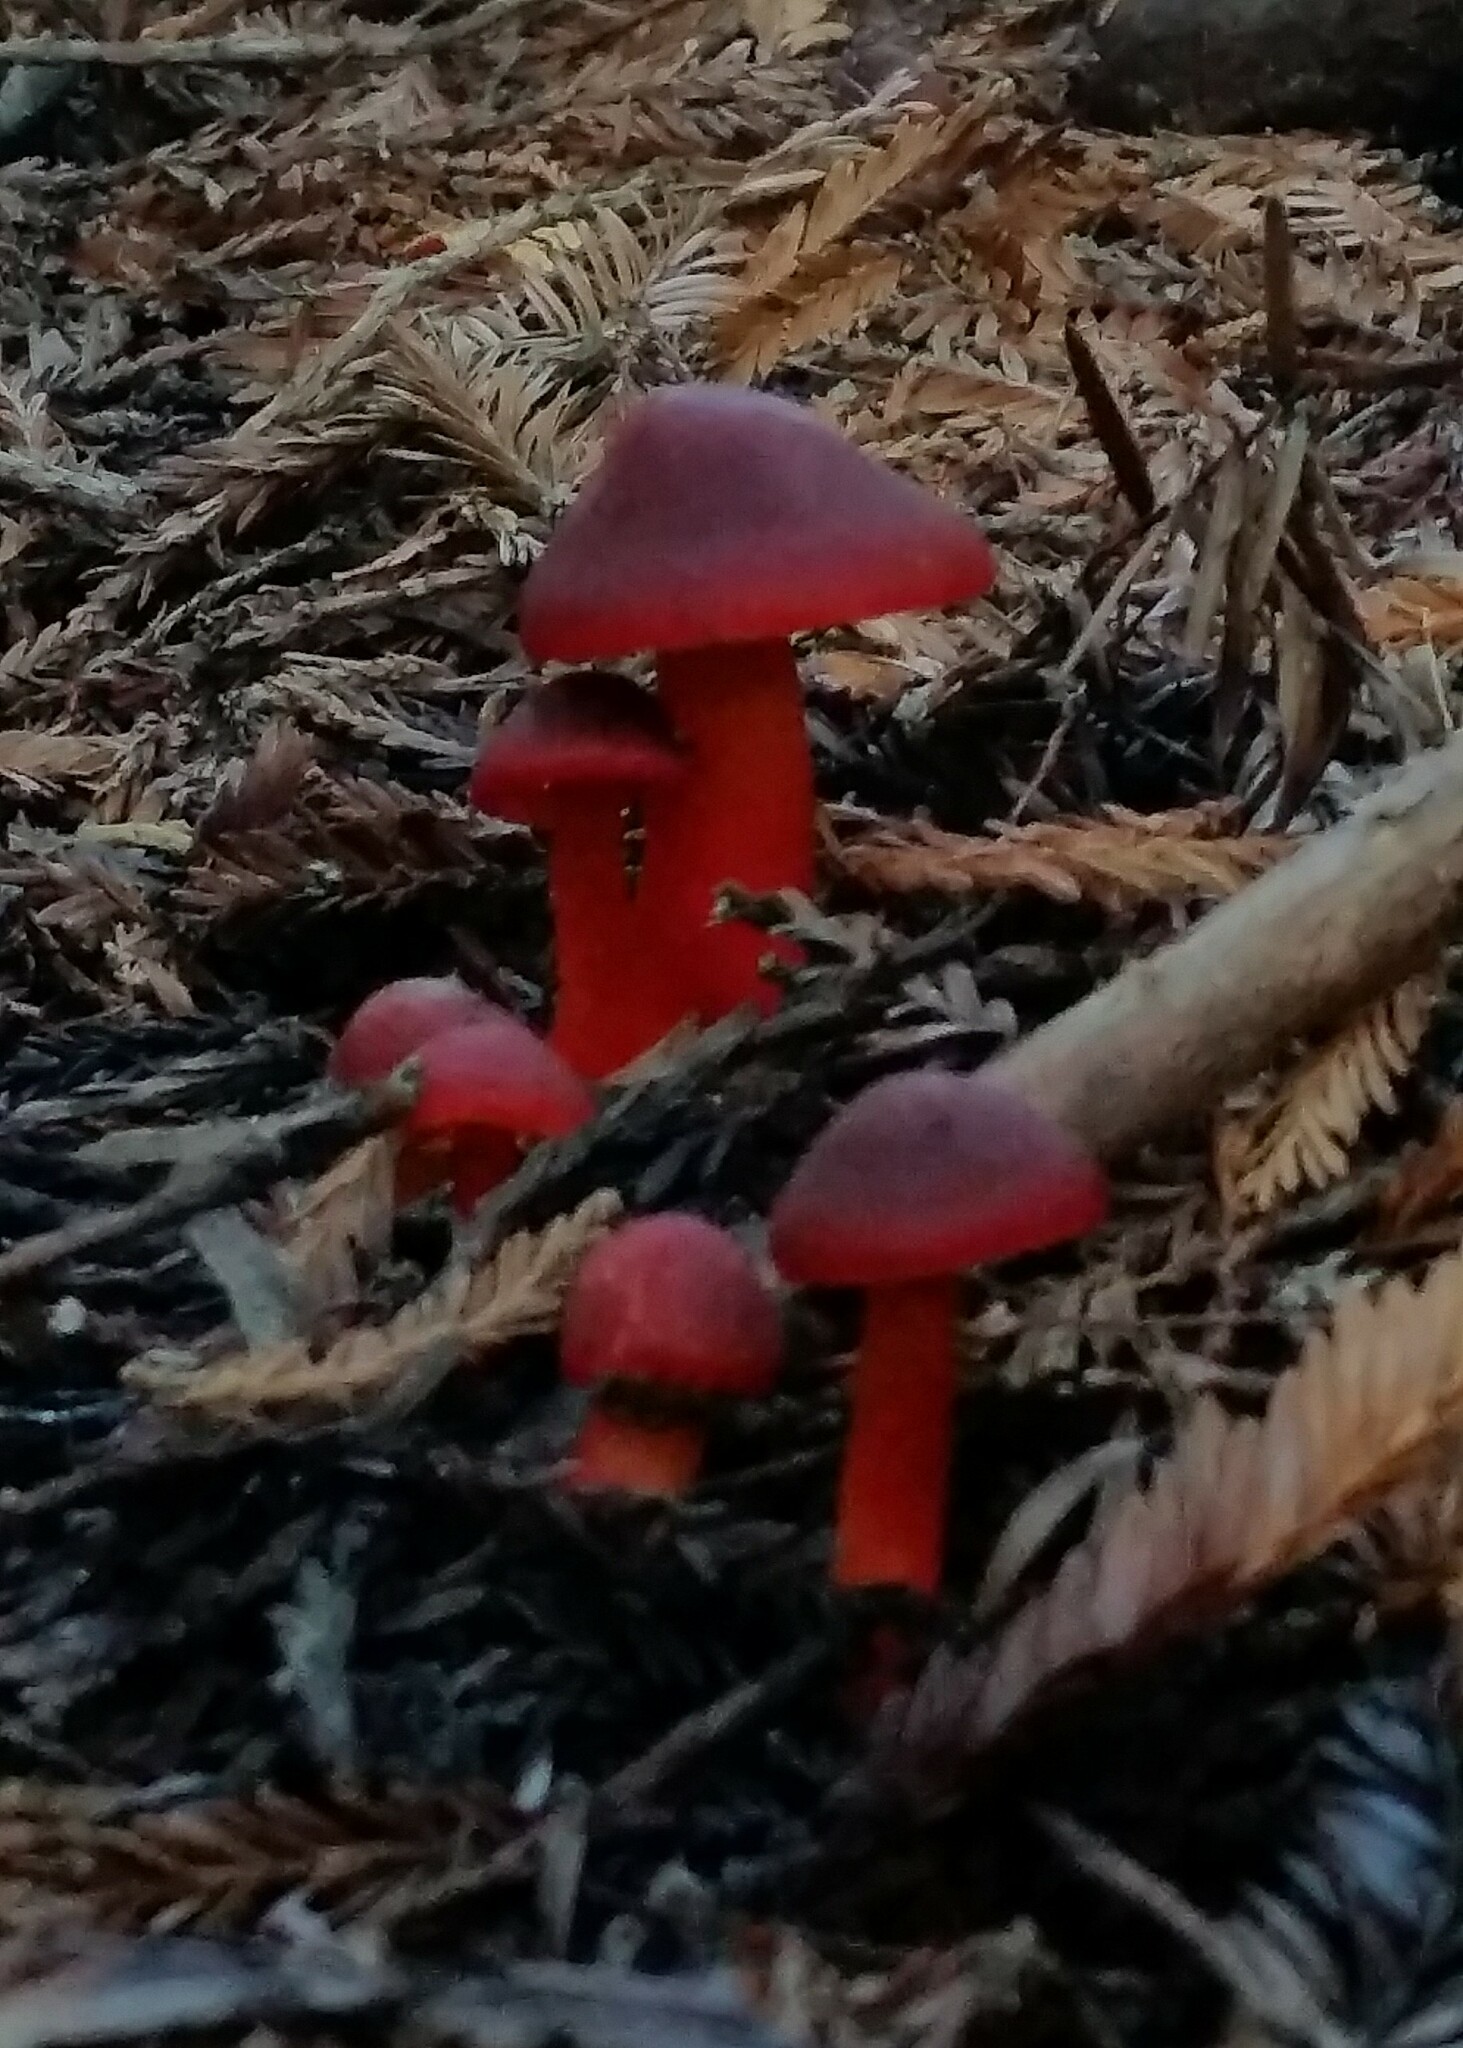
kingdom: Fungi
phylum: Basidiomycota
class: Agaricomycetes
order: Agaricales
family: Hygrophoraceae
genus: Hygrocybe
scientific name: Hygrocybe punicea
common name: Crimson waxcap
